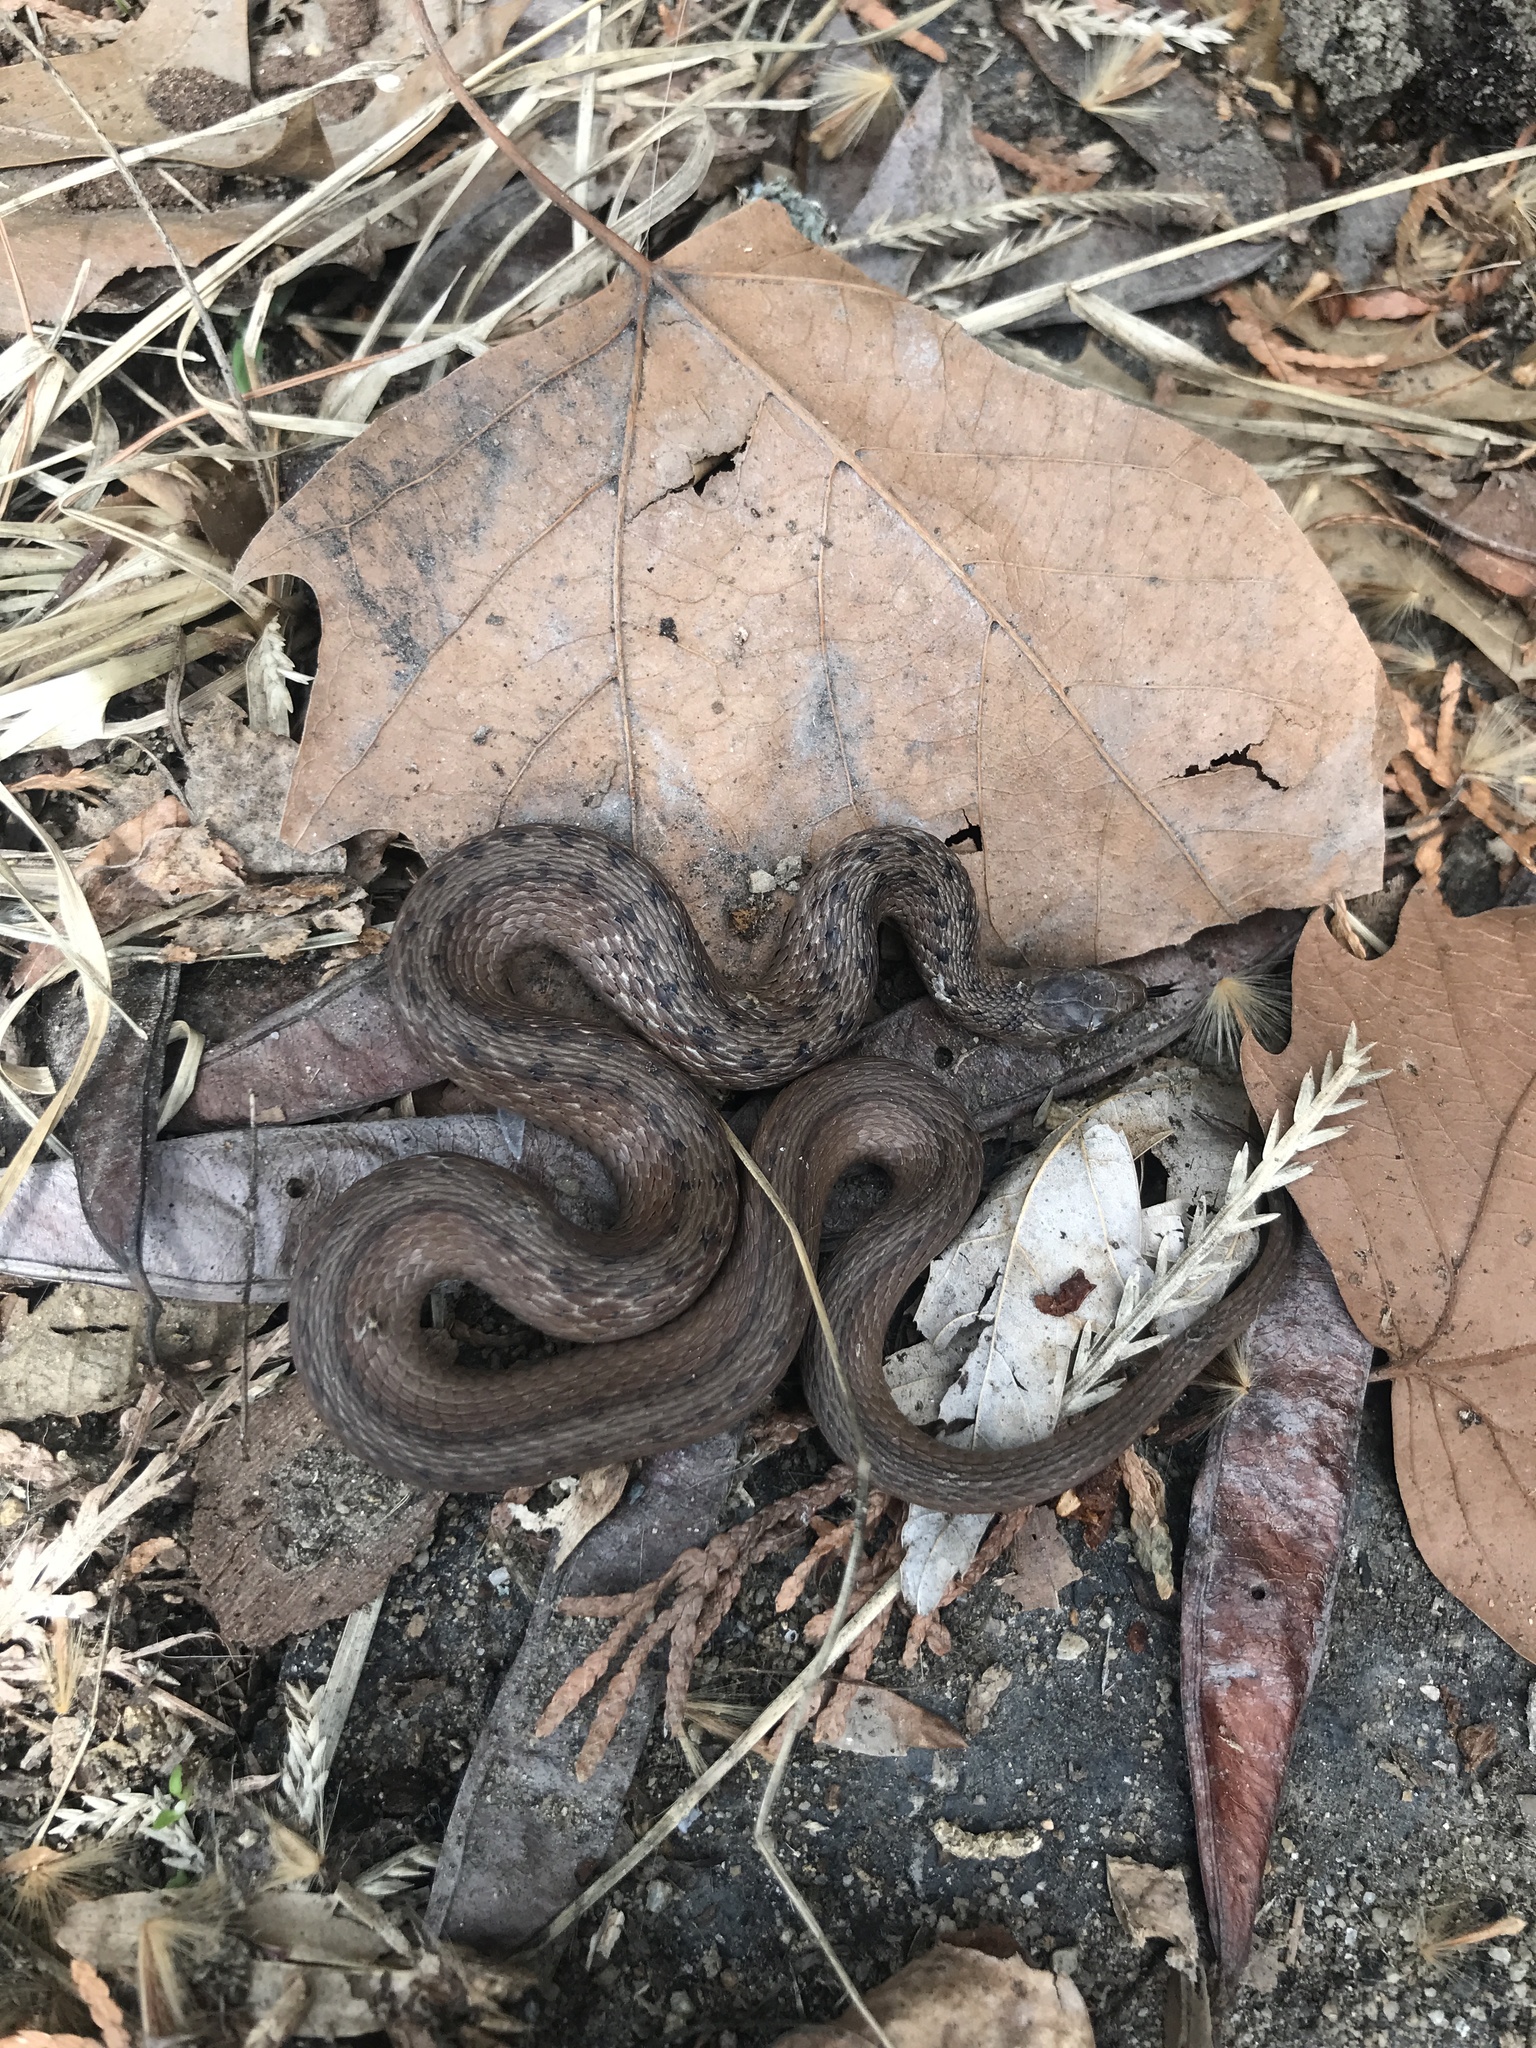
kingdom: Animalia
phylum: Chordata
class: Squamata
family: Colubridae
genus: Storeria
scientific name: Storeria dekayi
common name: (dekay’s) brown snake
